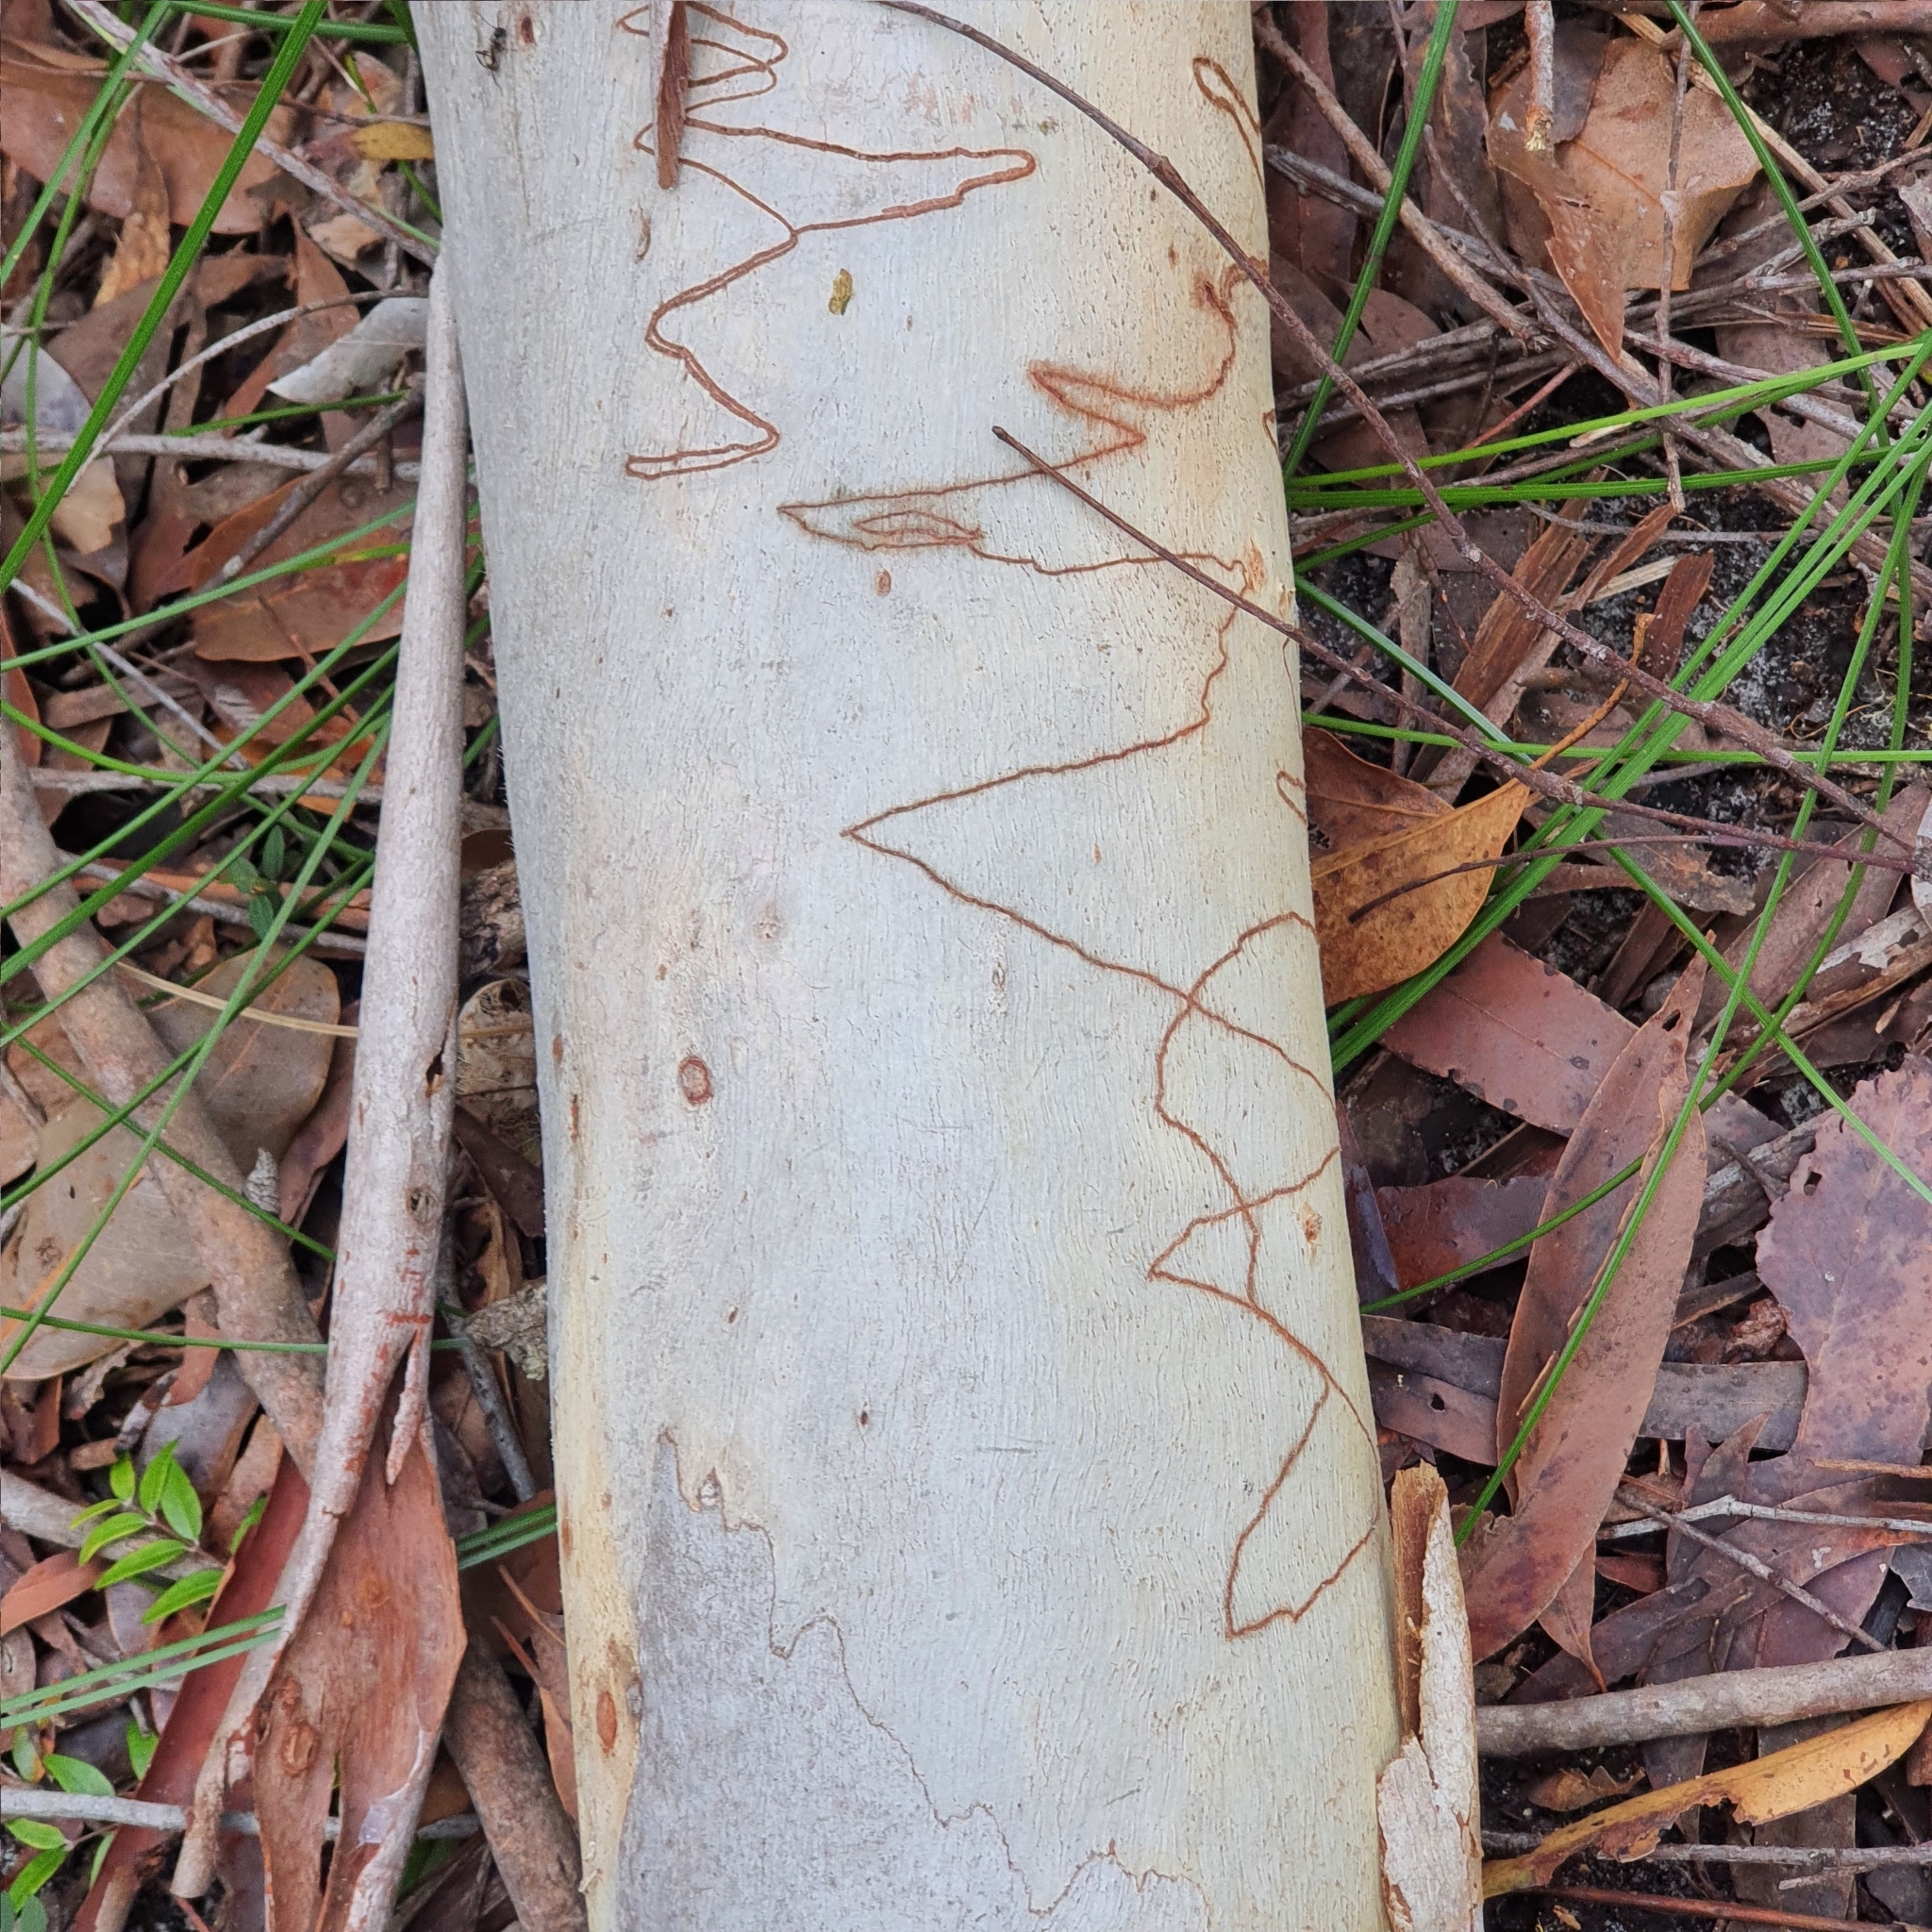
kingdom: Plantae
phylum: Tracheophyta
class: Magnoliopsida
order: Myrtales
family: Myrtaceae
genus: Eucalyptus
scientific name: Eucalyptus pilularis
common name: Blackbutt
